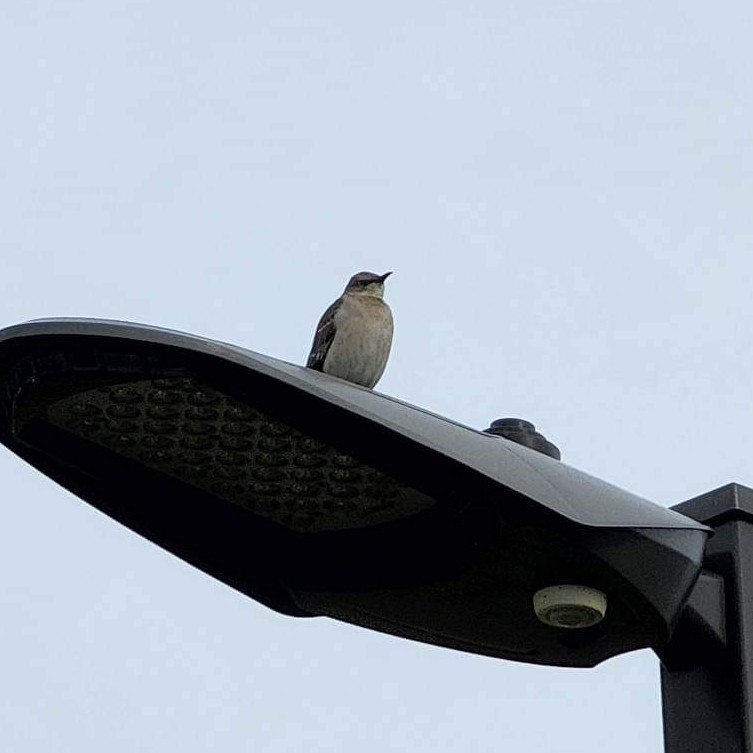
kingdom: Animalia
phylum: Chordata
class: Aves
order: Passeriformes
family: Mimidae
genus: Mimus
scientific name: Mimus polyglottos
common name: Northern mockingbird
